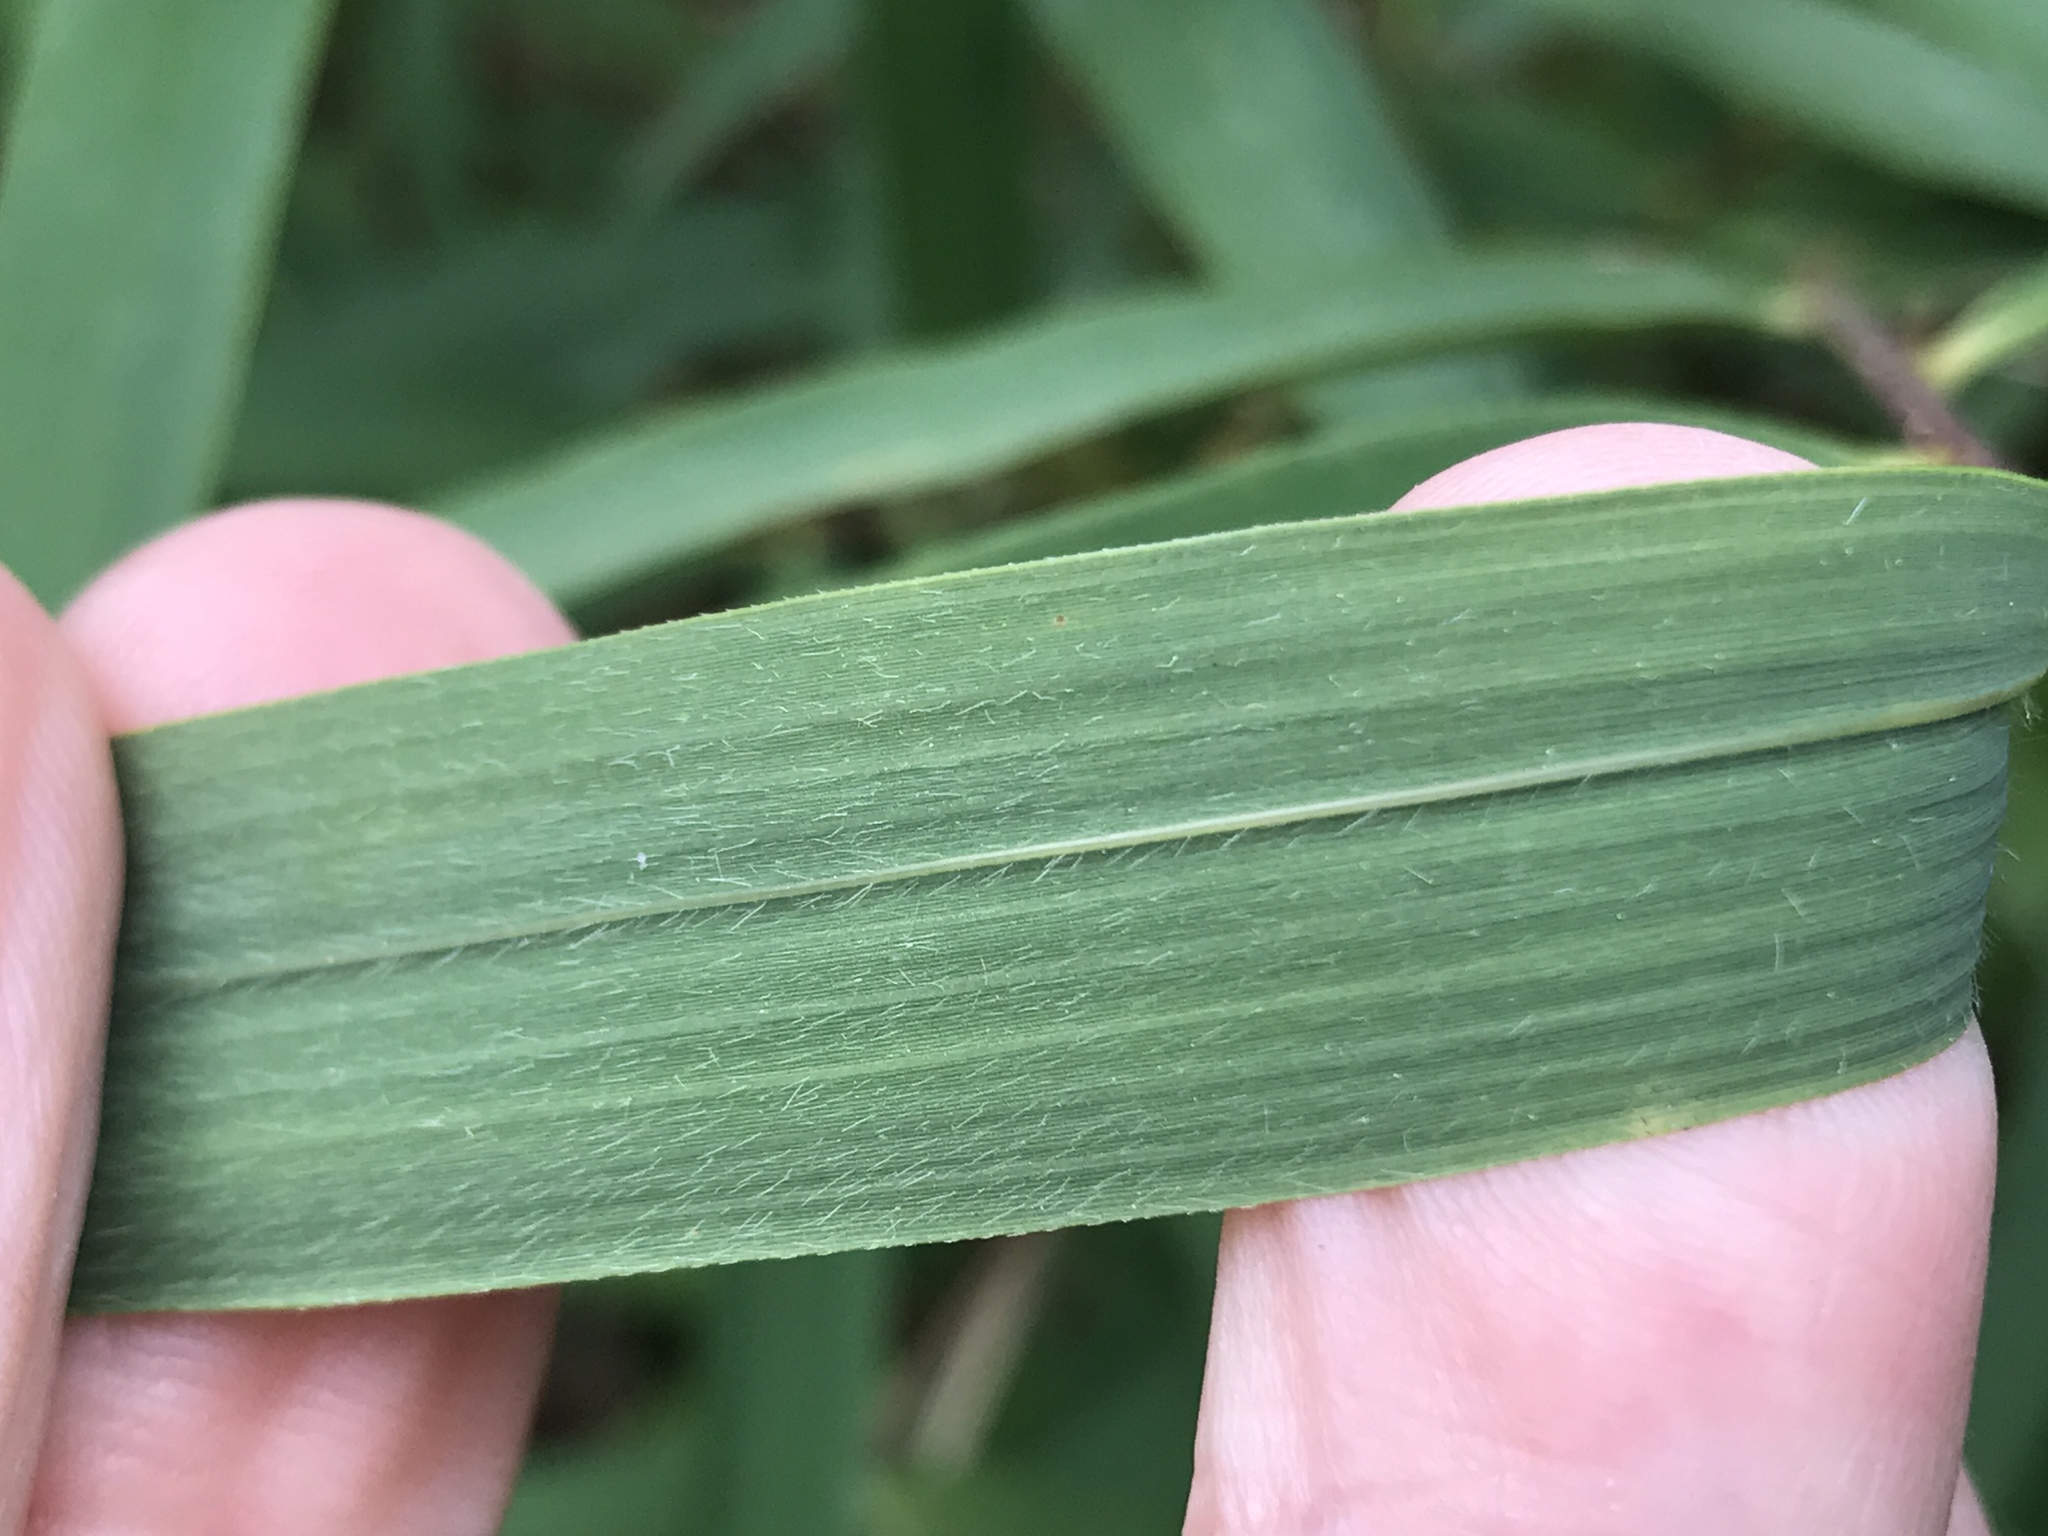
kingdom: Plantae
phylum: Tracheophyta
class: Liliopsida
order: Poales
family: Poaceae
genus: Arundinaria
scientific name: Arundinaria appalachiana
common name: Hill cane
